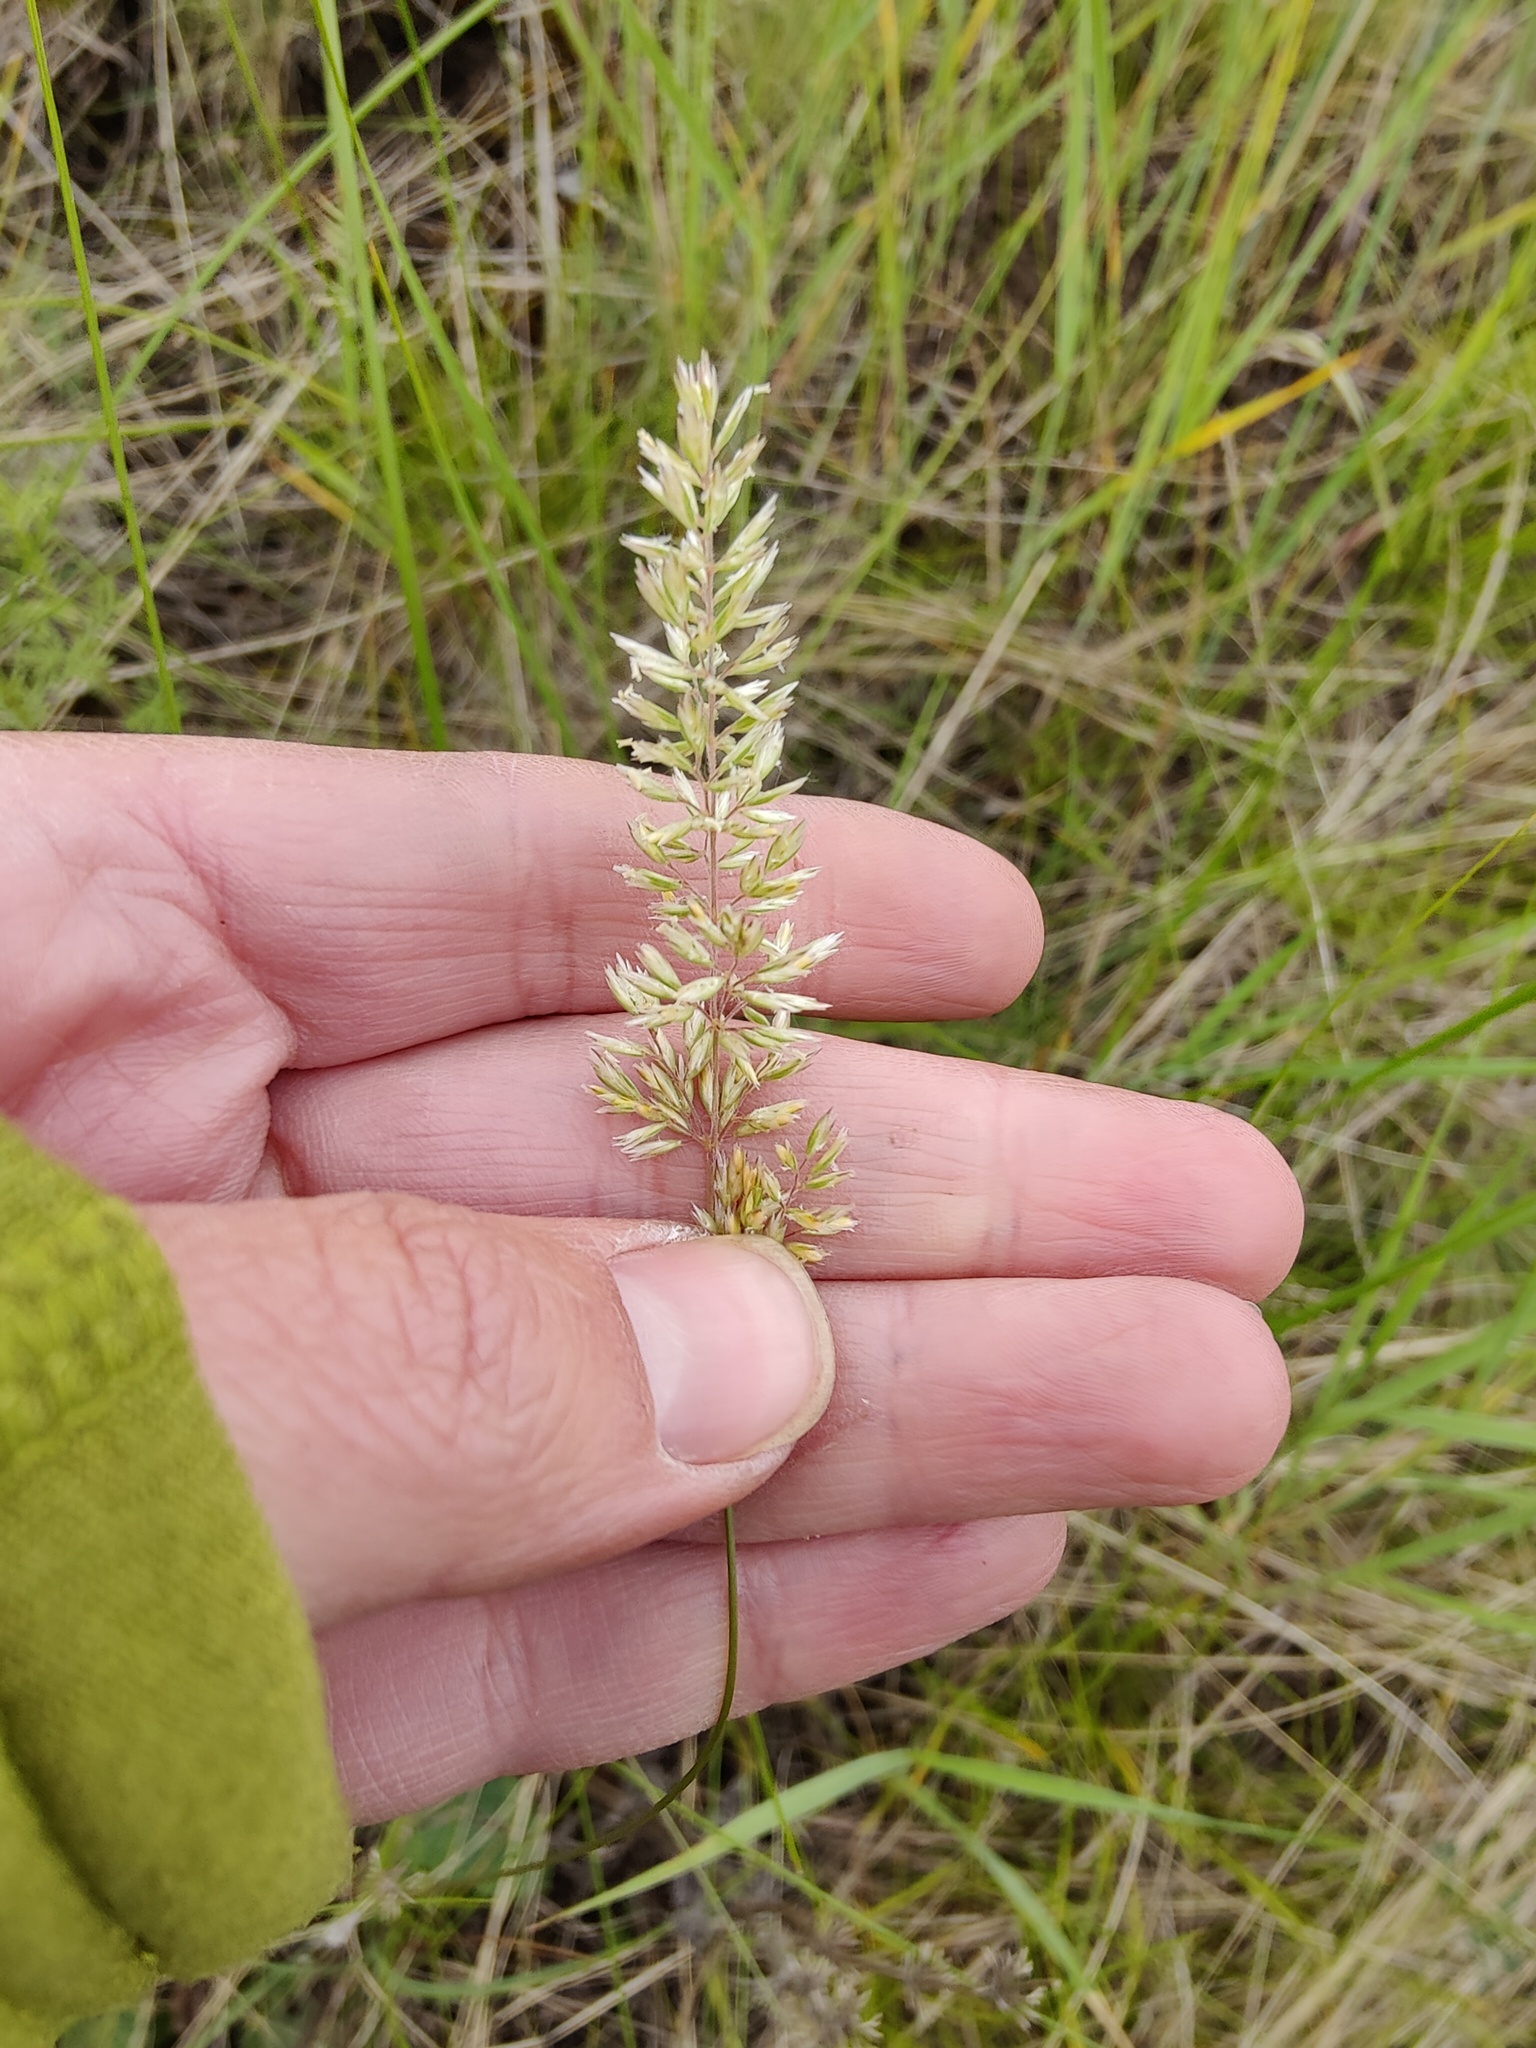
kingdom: Plantae
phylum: Tracheophyta
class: Liliopsida
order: Poales
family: Poaceae
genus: Koeleria
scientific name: Koeleria macrantha
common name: Crested hair-grass
